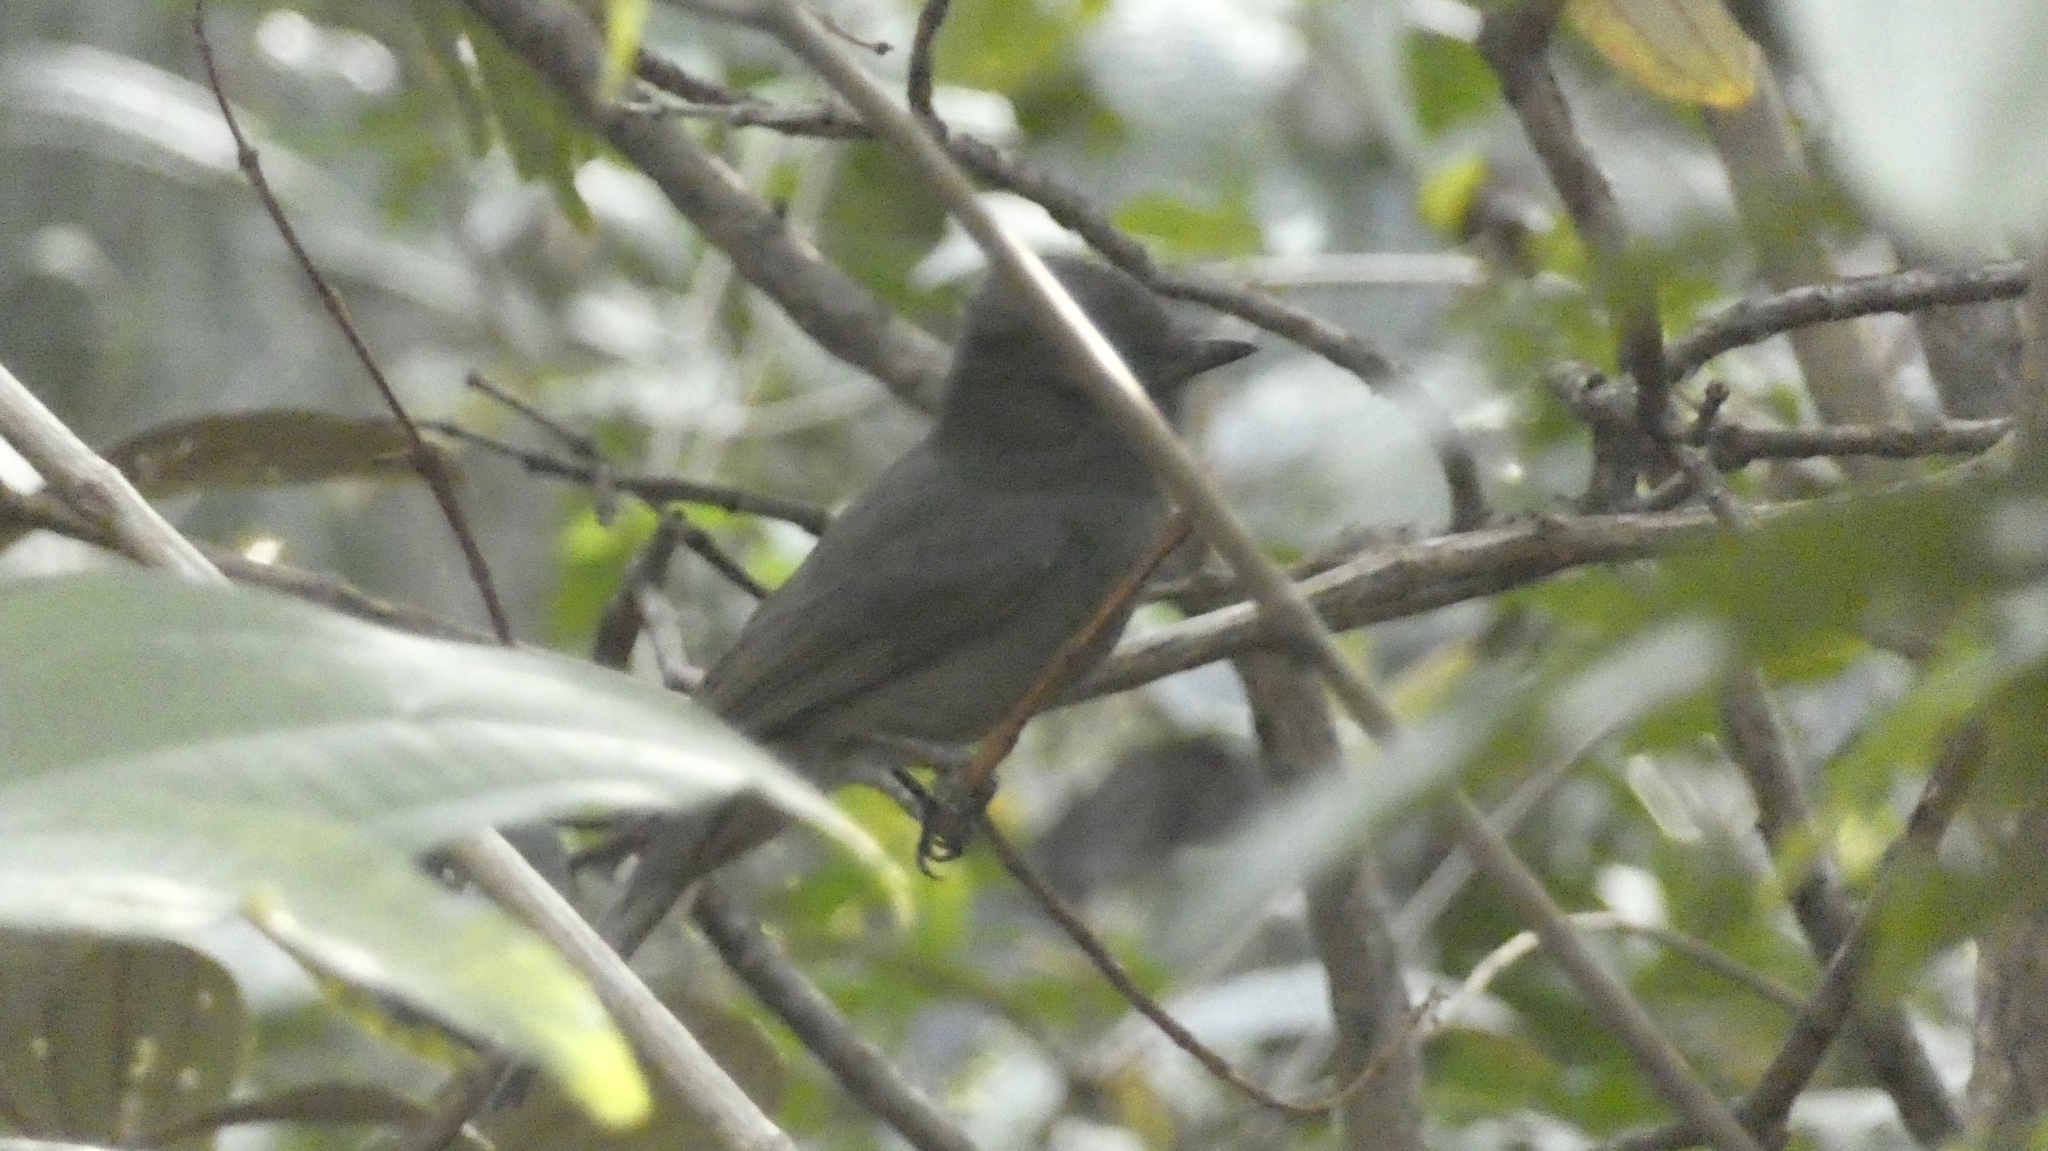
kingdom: Animalia
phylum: Chordata
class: Aves
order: Passeriformes
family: Tyrannidae
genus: Rhytipterna
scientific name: Rhytipterna simplex
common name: Greyish mourner
